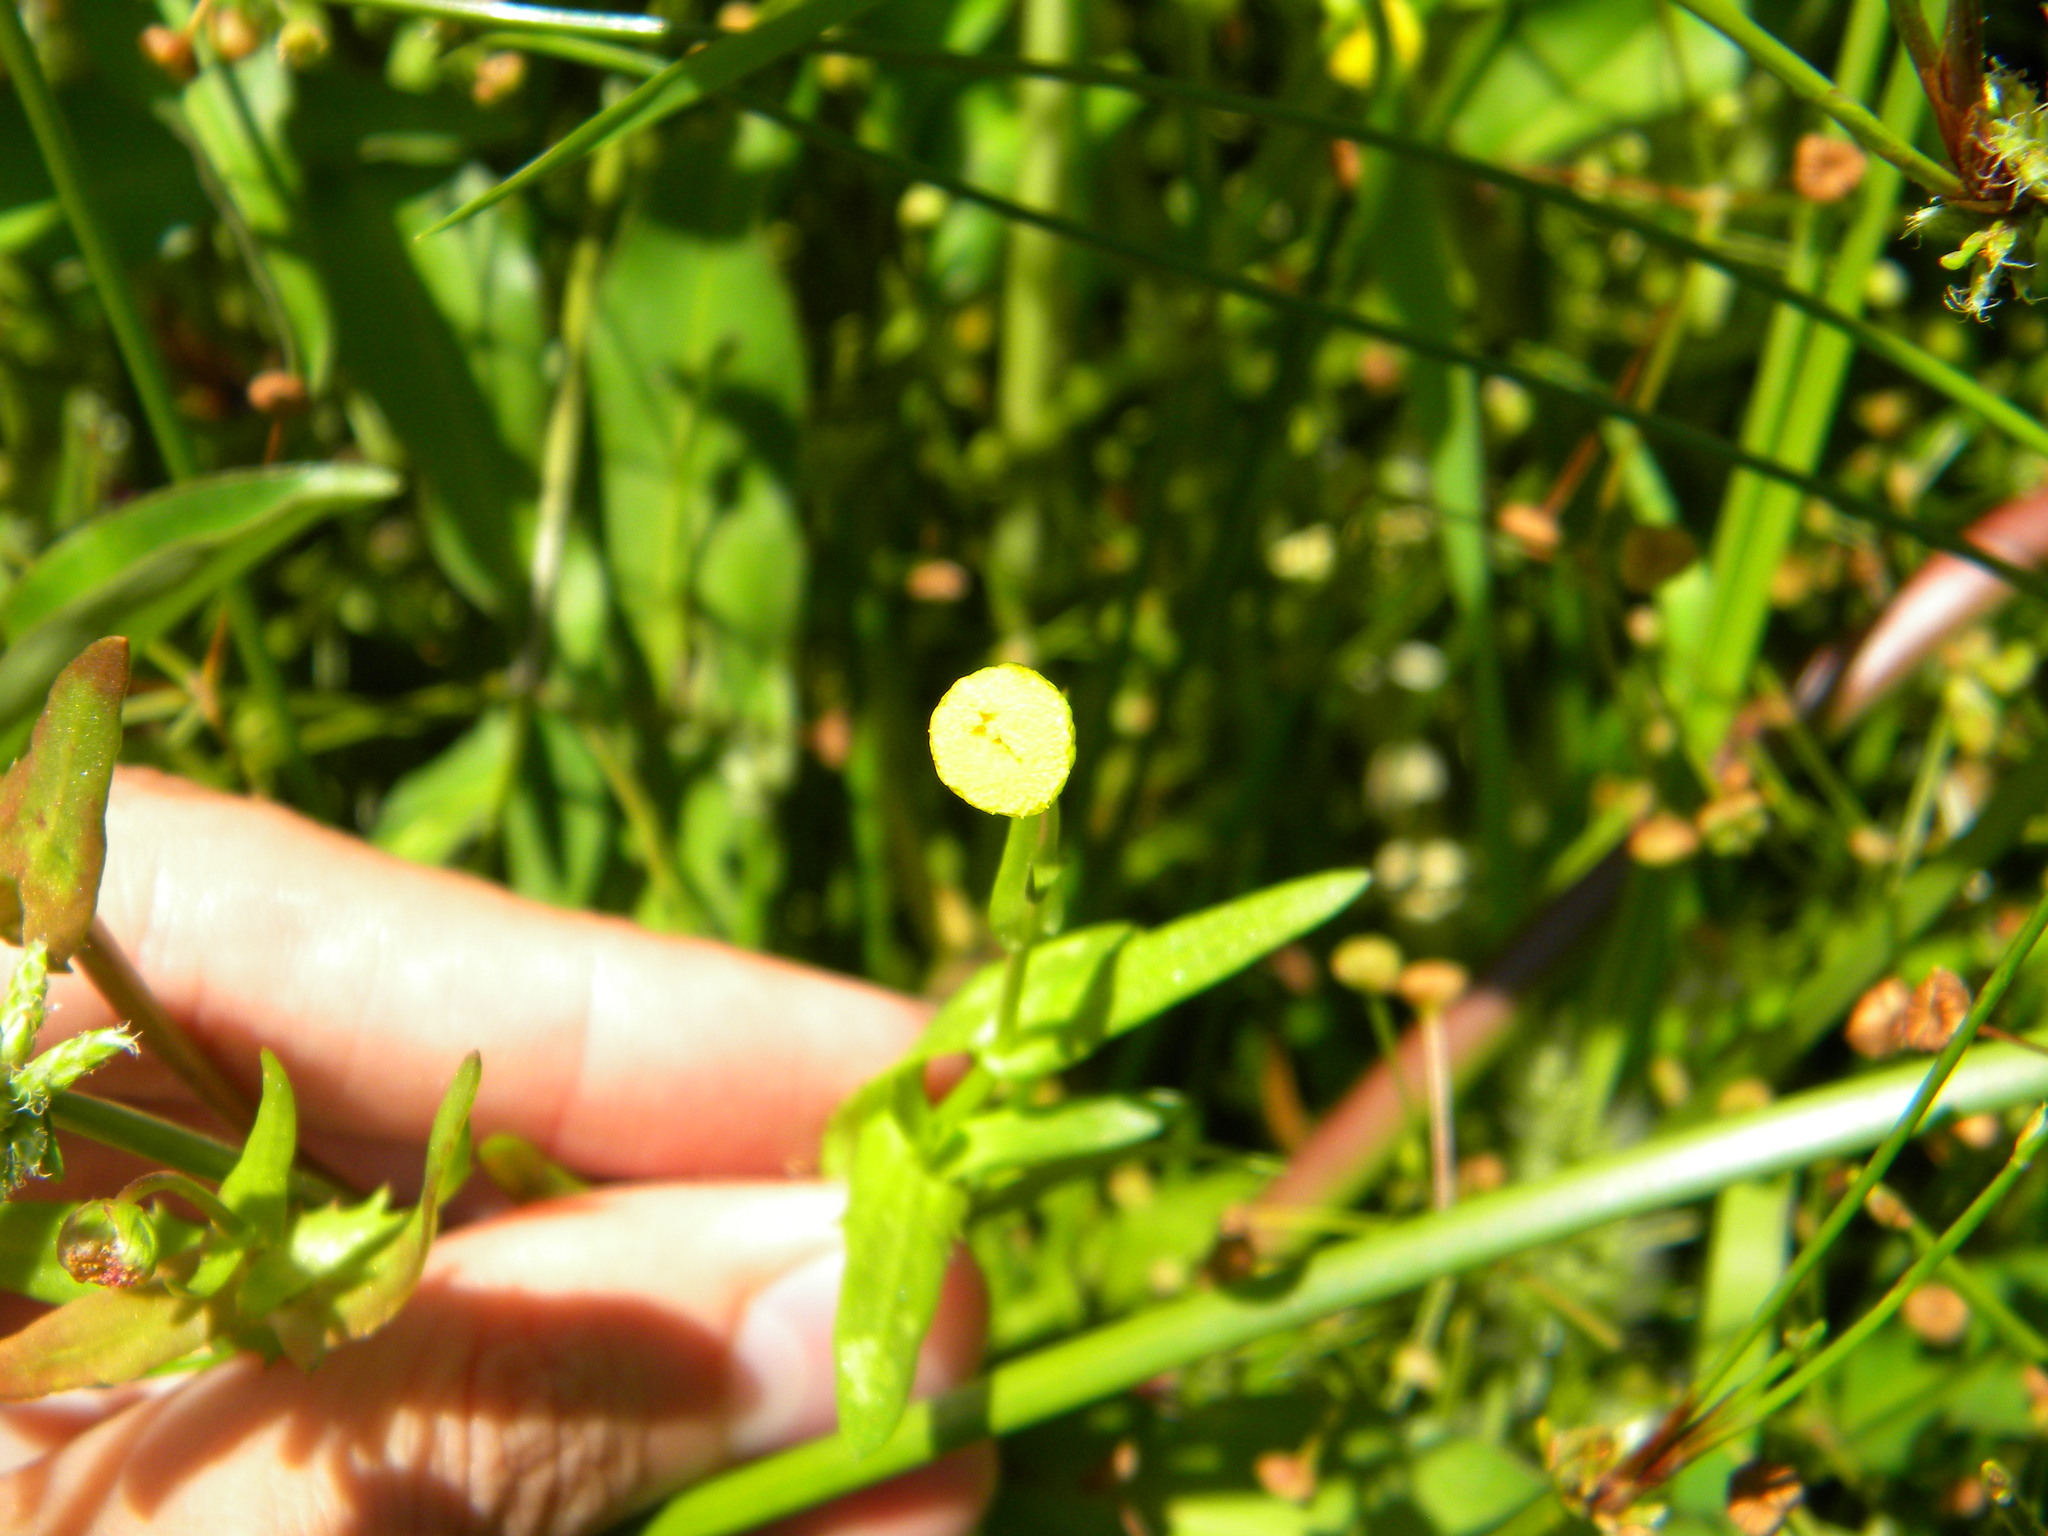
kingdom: Plantae
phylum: Tracheophyta
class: Magnoliopsida
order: Asterales
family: Asteraceae
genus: Cotula
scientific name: Cotula coronopifolia
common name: Buttonweed
